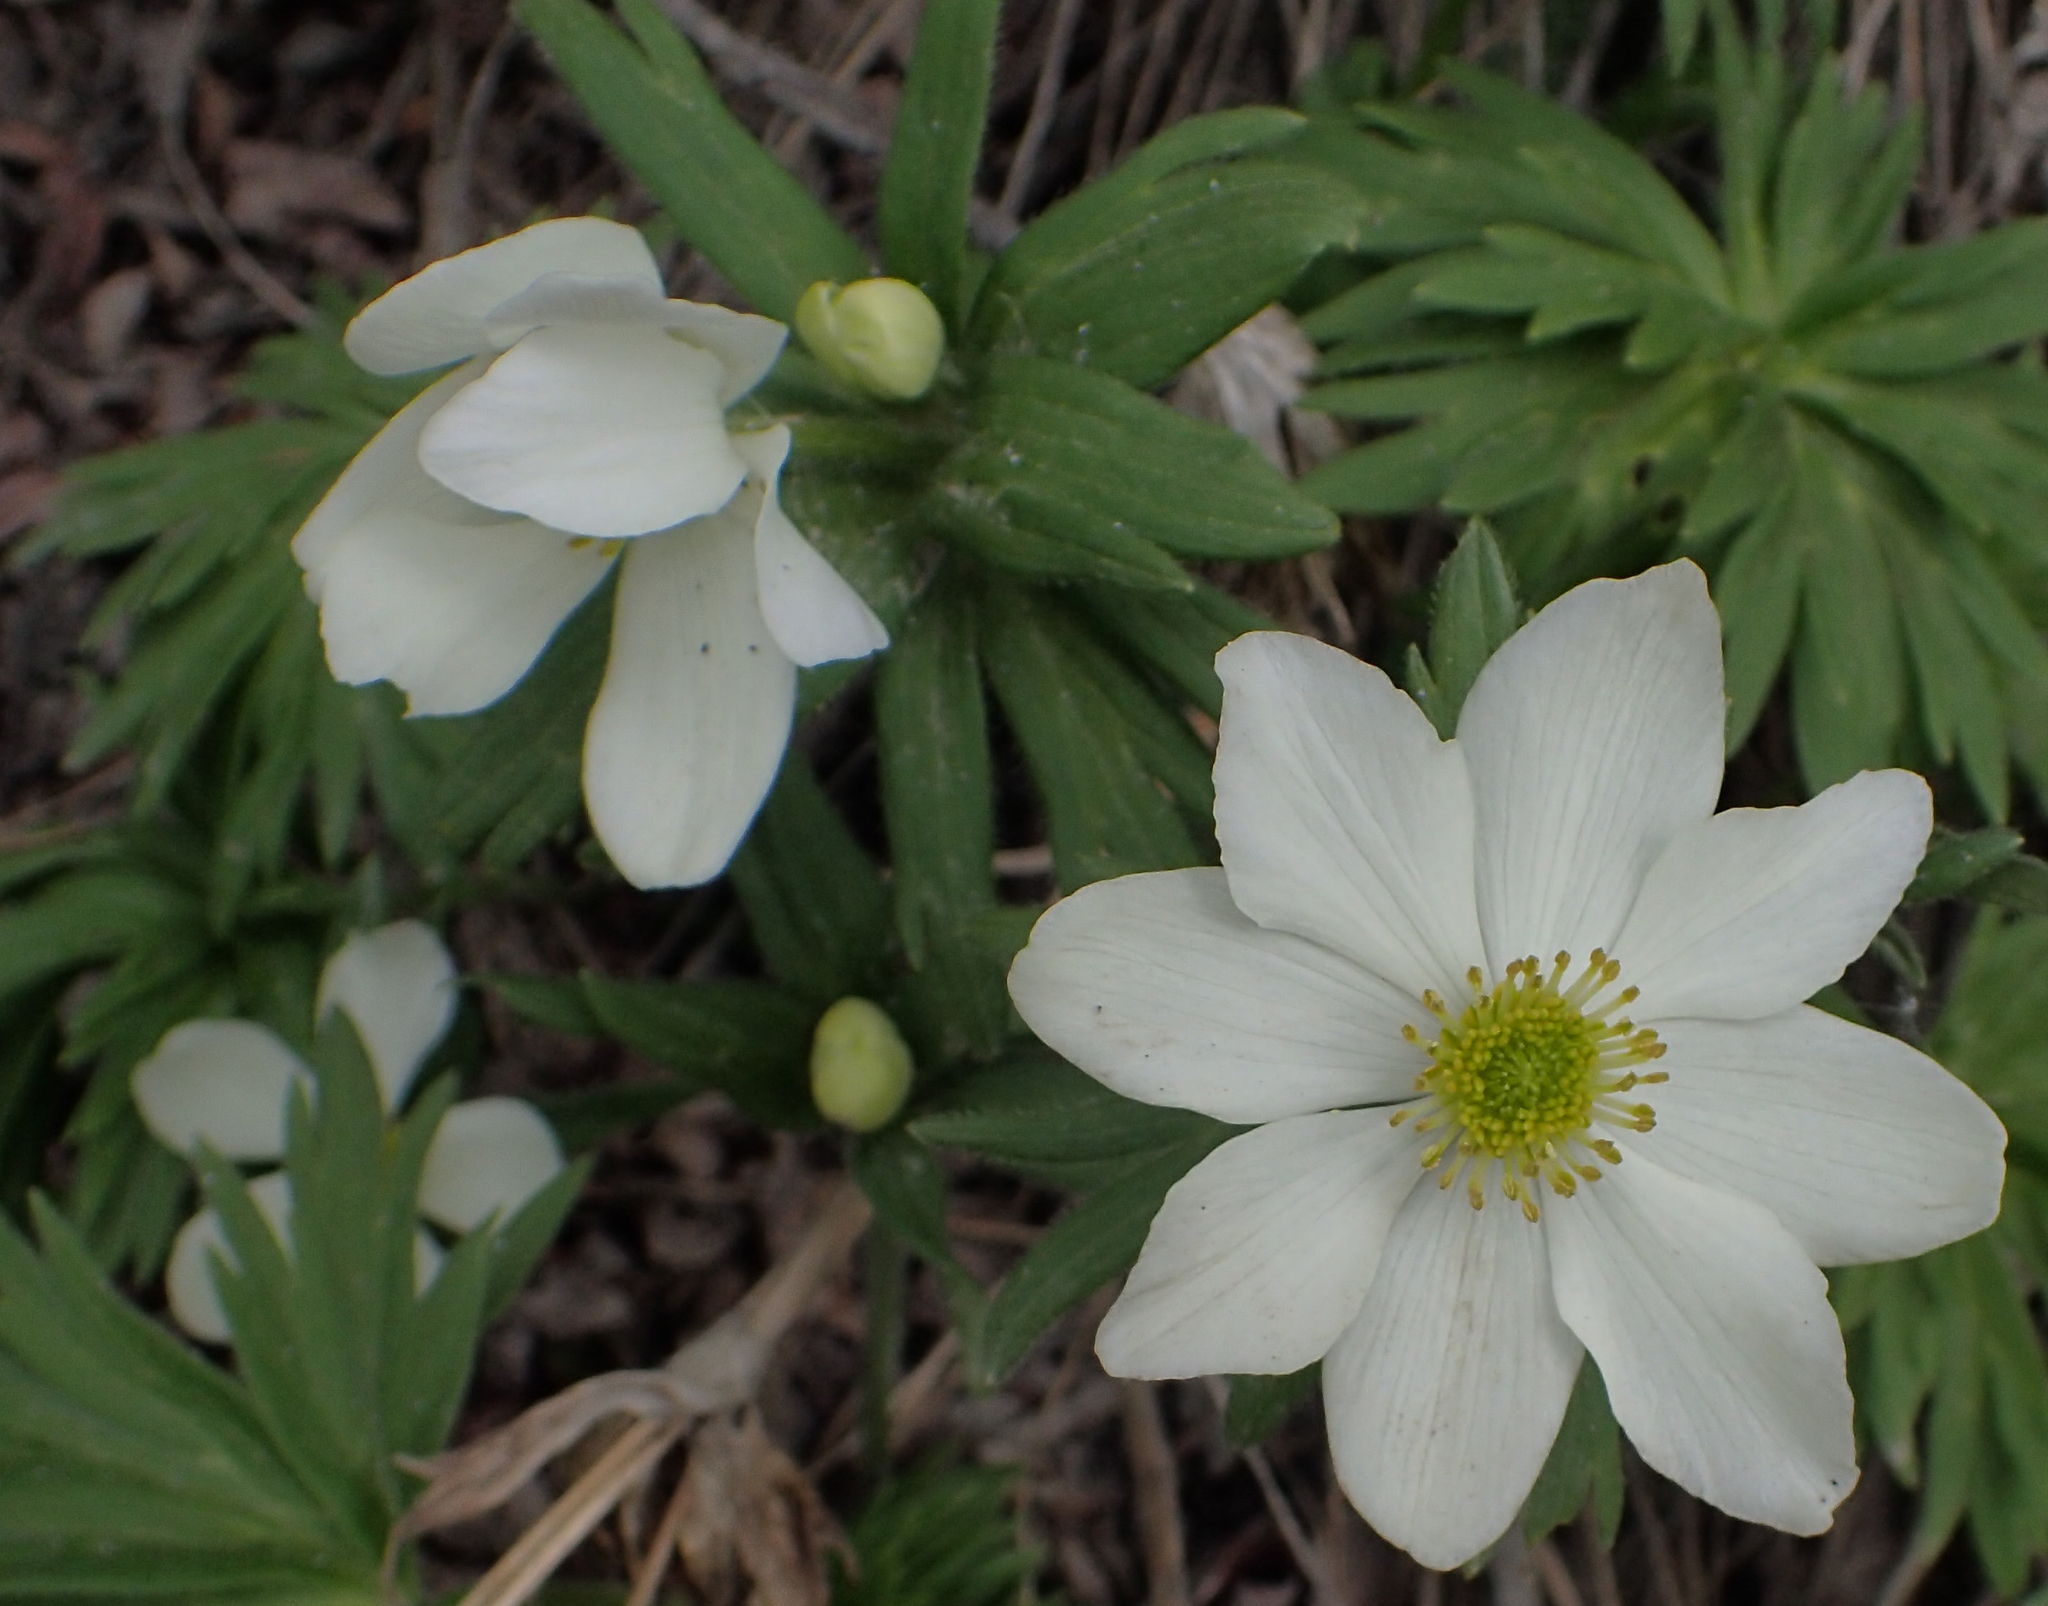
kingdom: Plantae
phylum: Tracheophyta
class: Magnoliopsida
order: Ranunculales
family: Ranunculaceae
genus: Anemonastrum
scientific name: Anemonastrum narcissiflorum
